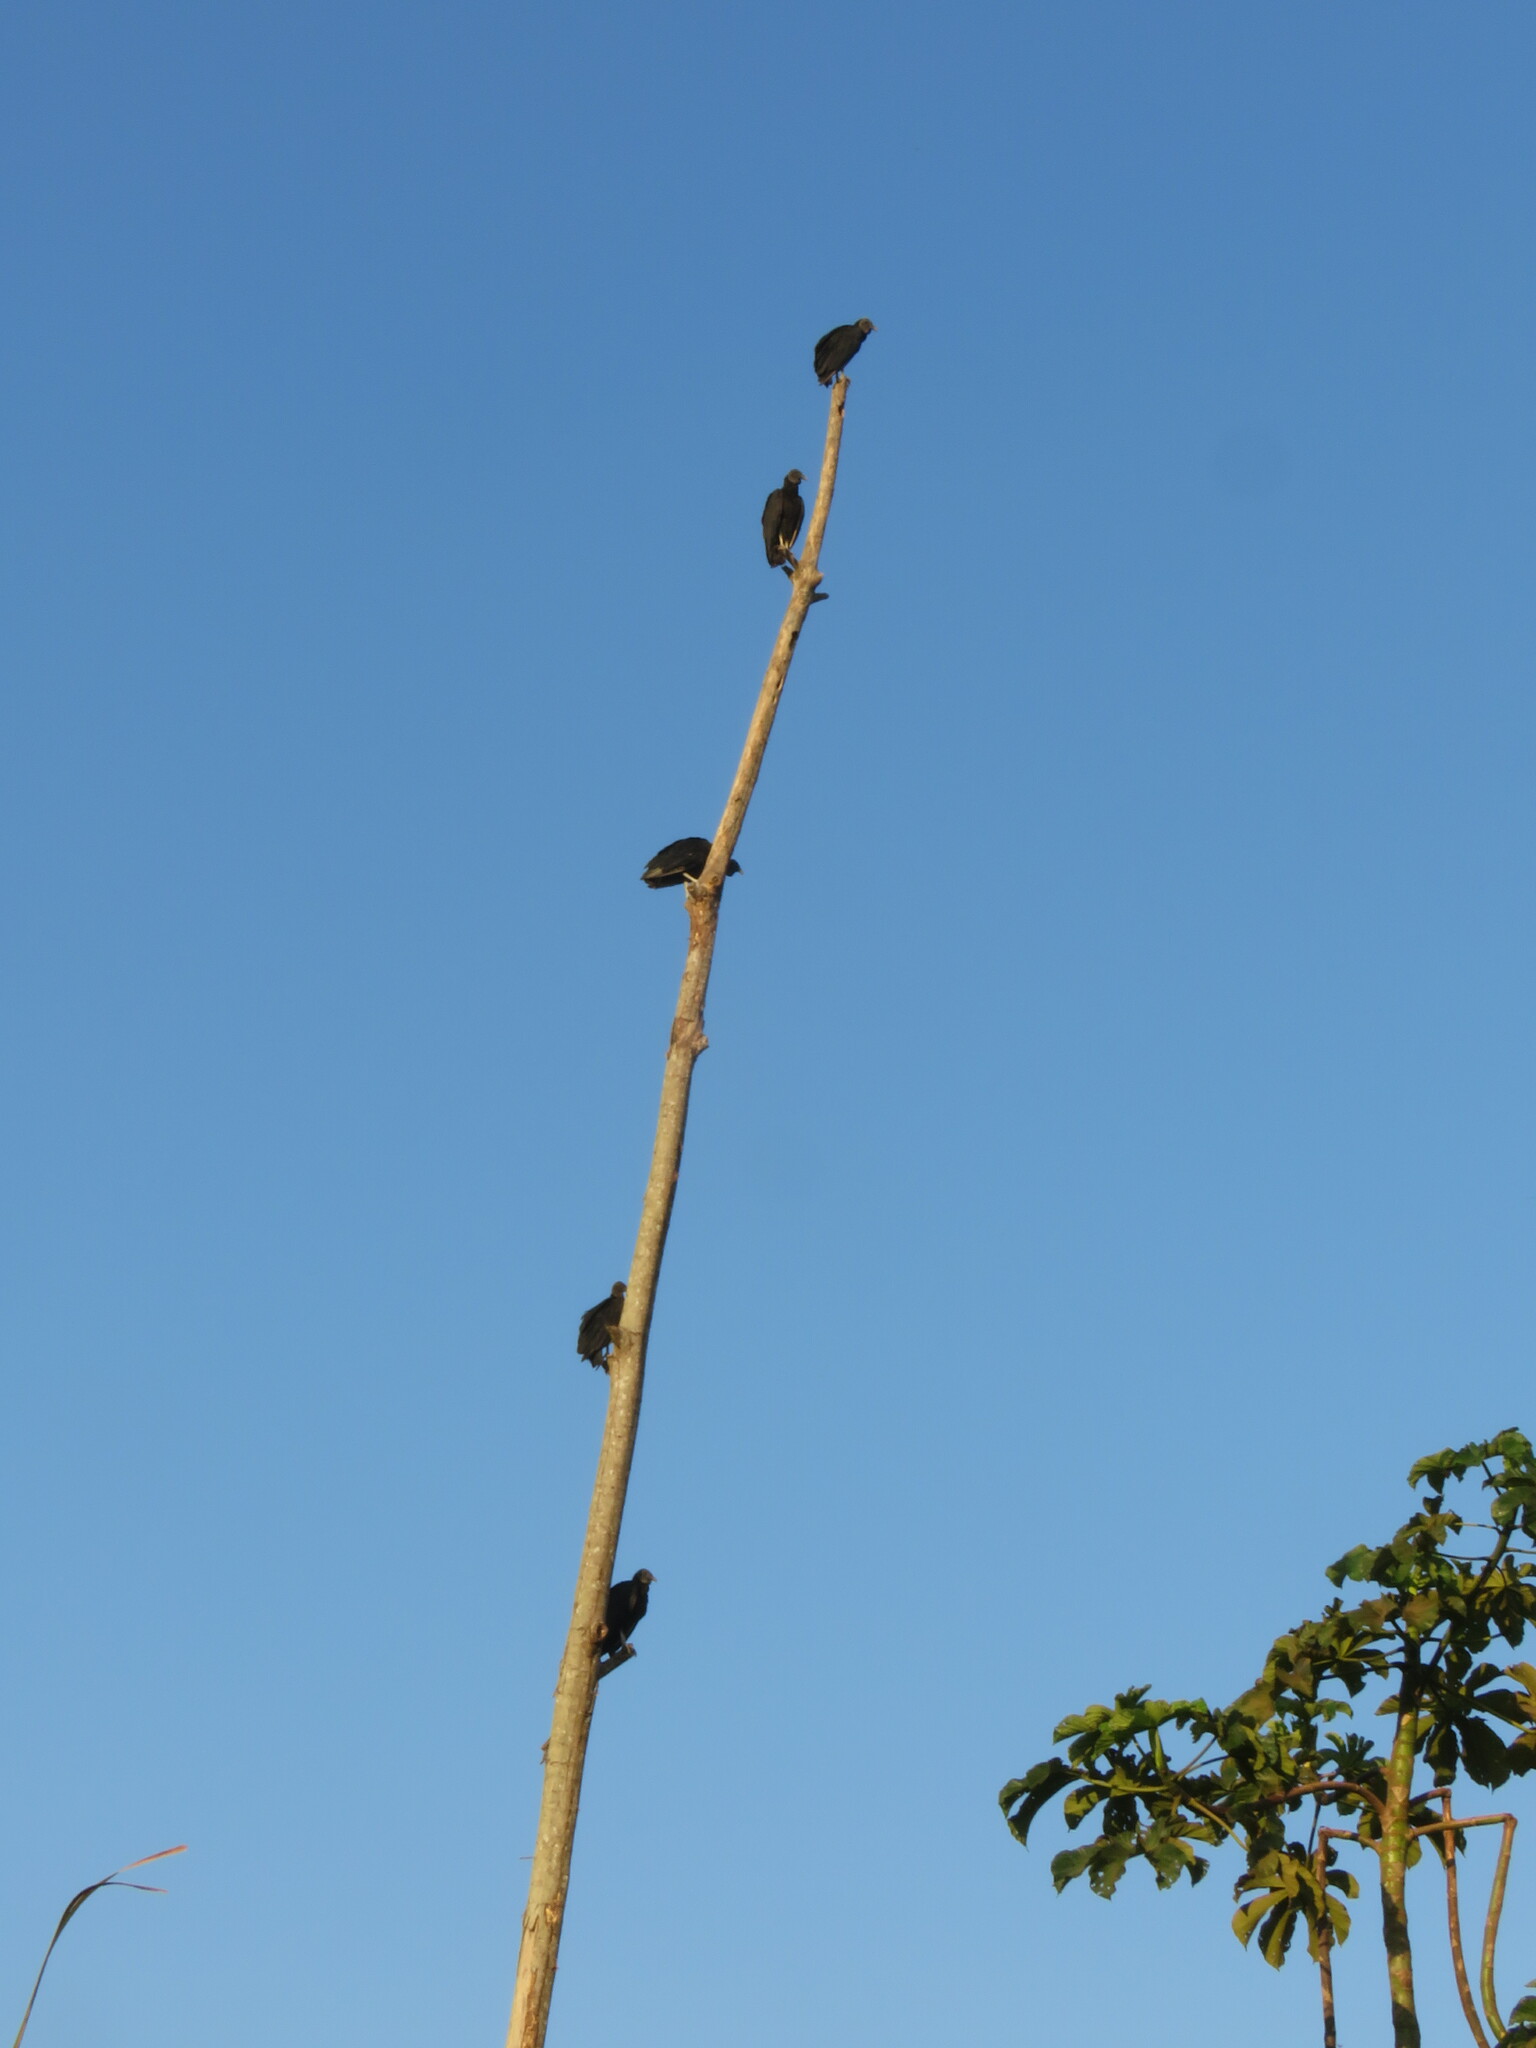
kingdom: Animalia
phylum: Chordata
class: Aves
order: Accipitriformes
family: Cathartidae
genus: Coragyps
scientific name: Coragyps atratus
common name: Black vulture
